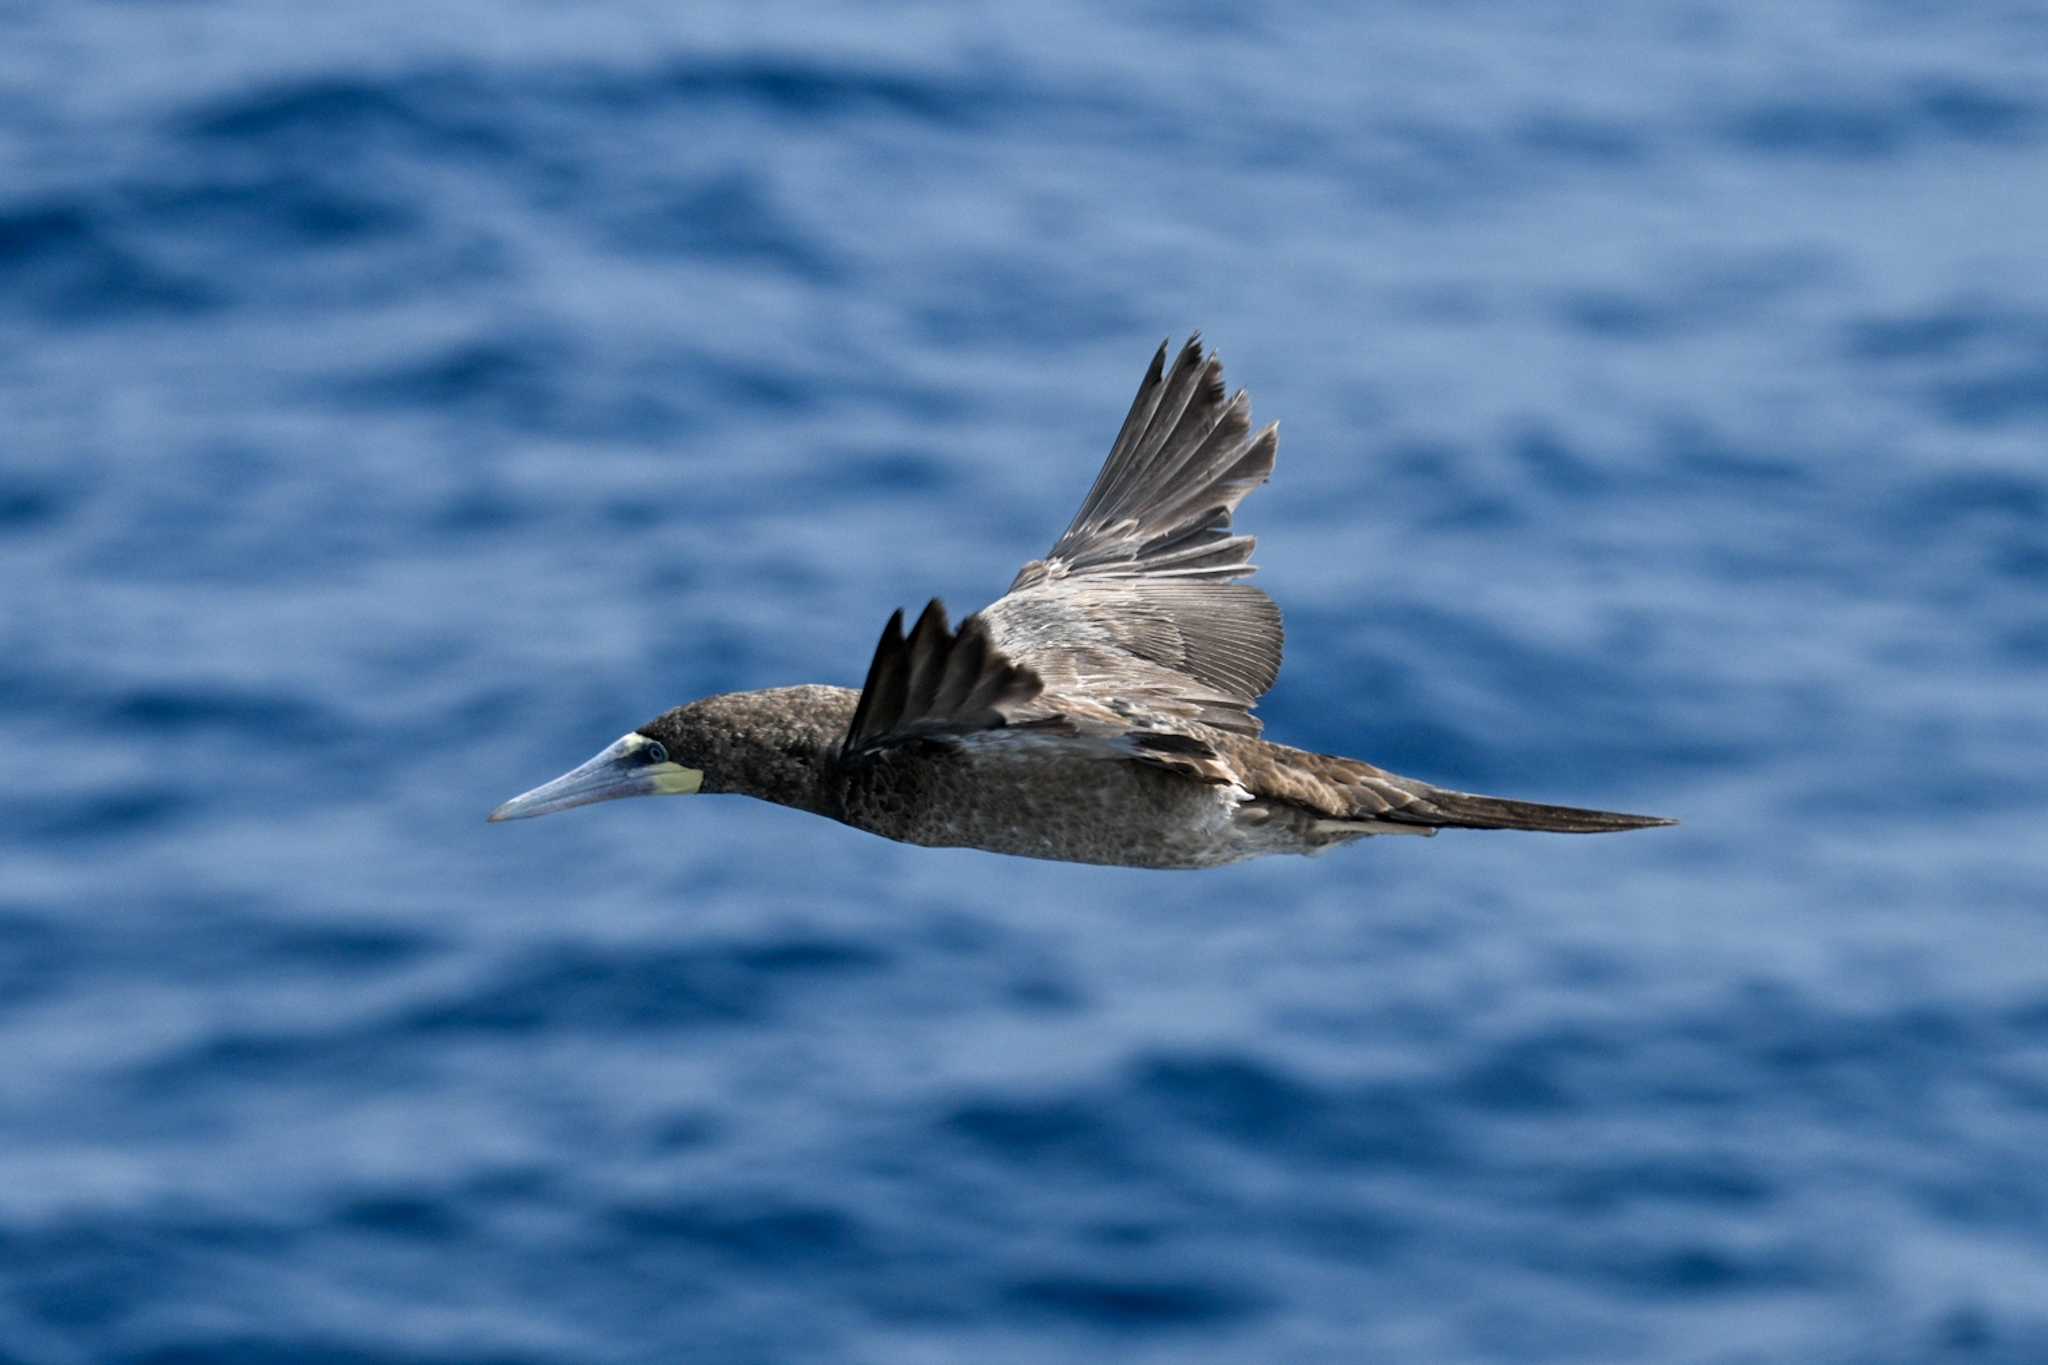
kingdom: Animalia
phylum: Chordata
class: Aves
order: Suliformes
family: Sulidae
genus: Sula
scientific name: Sula leucogaster
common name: Brown booby
